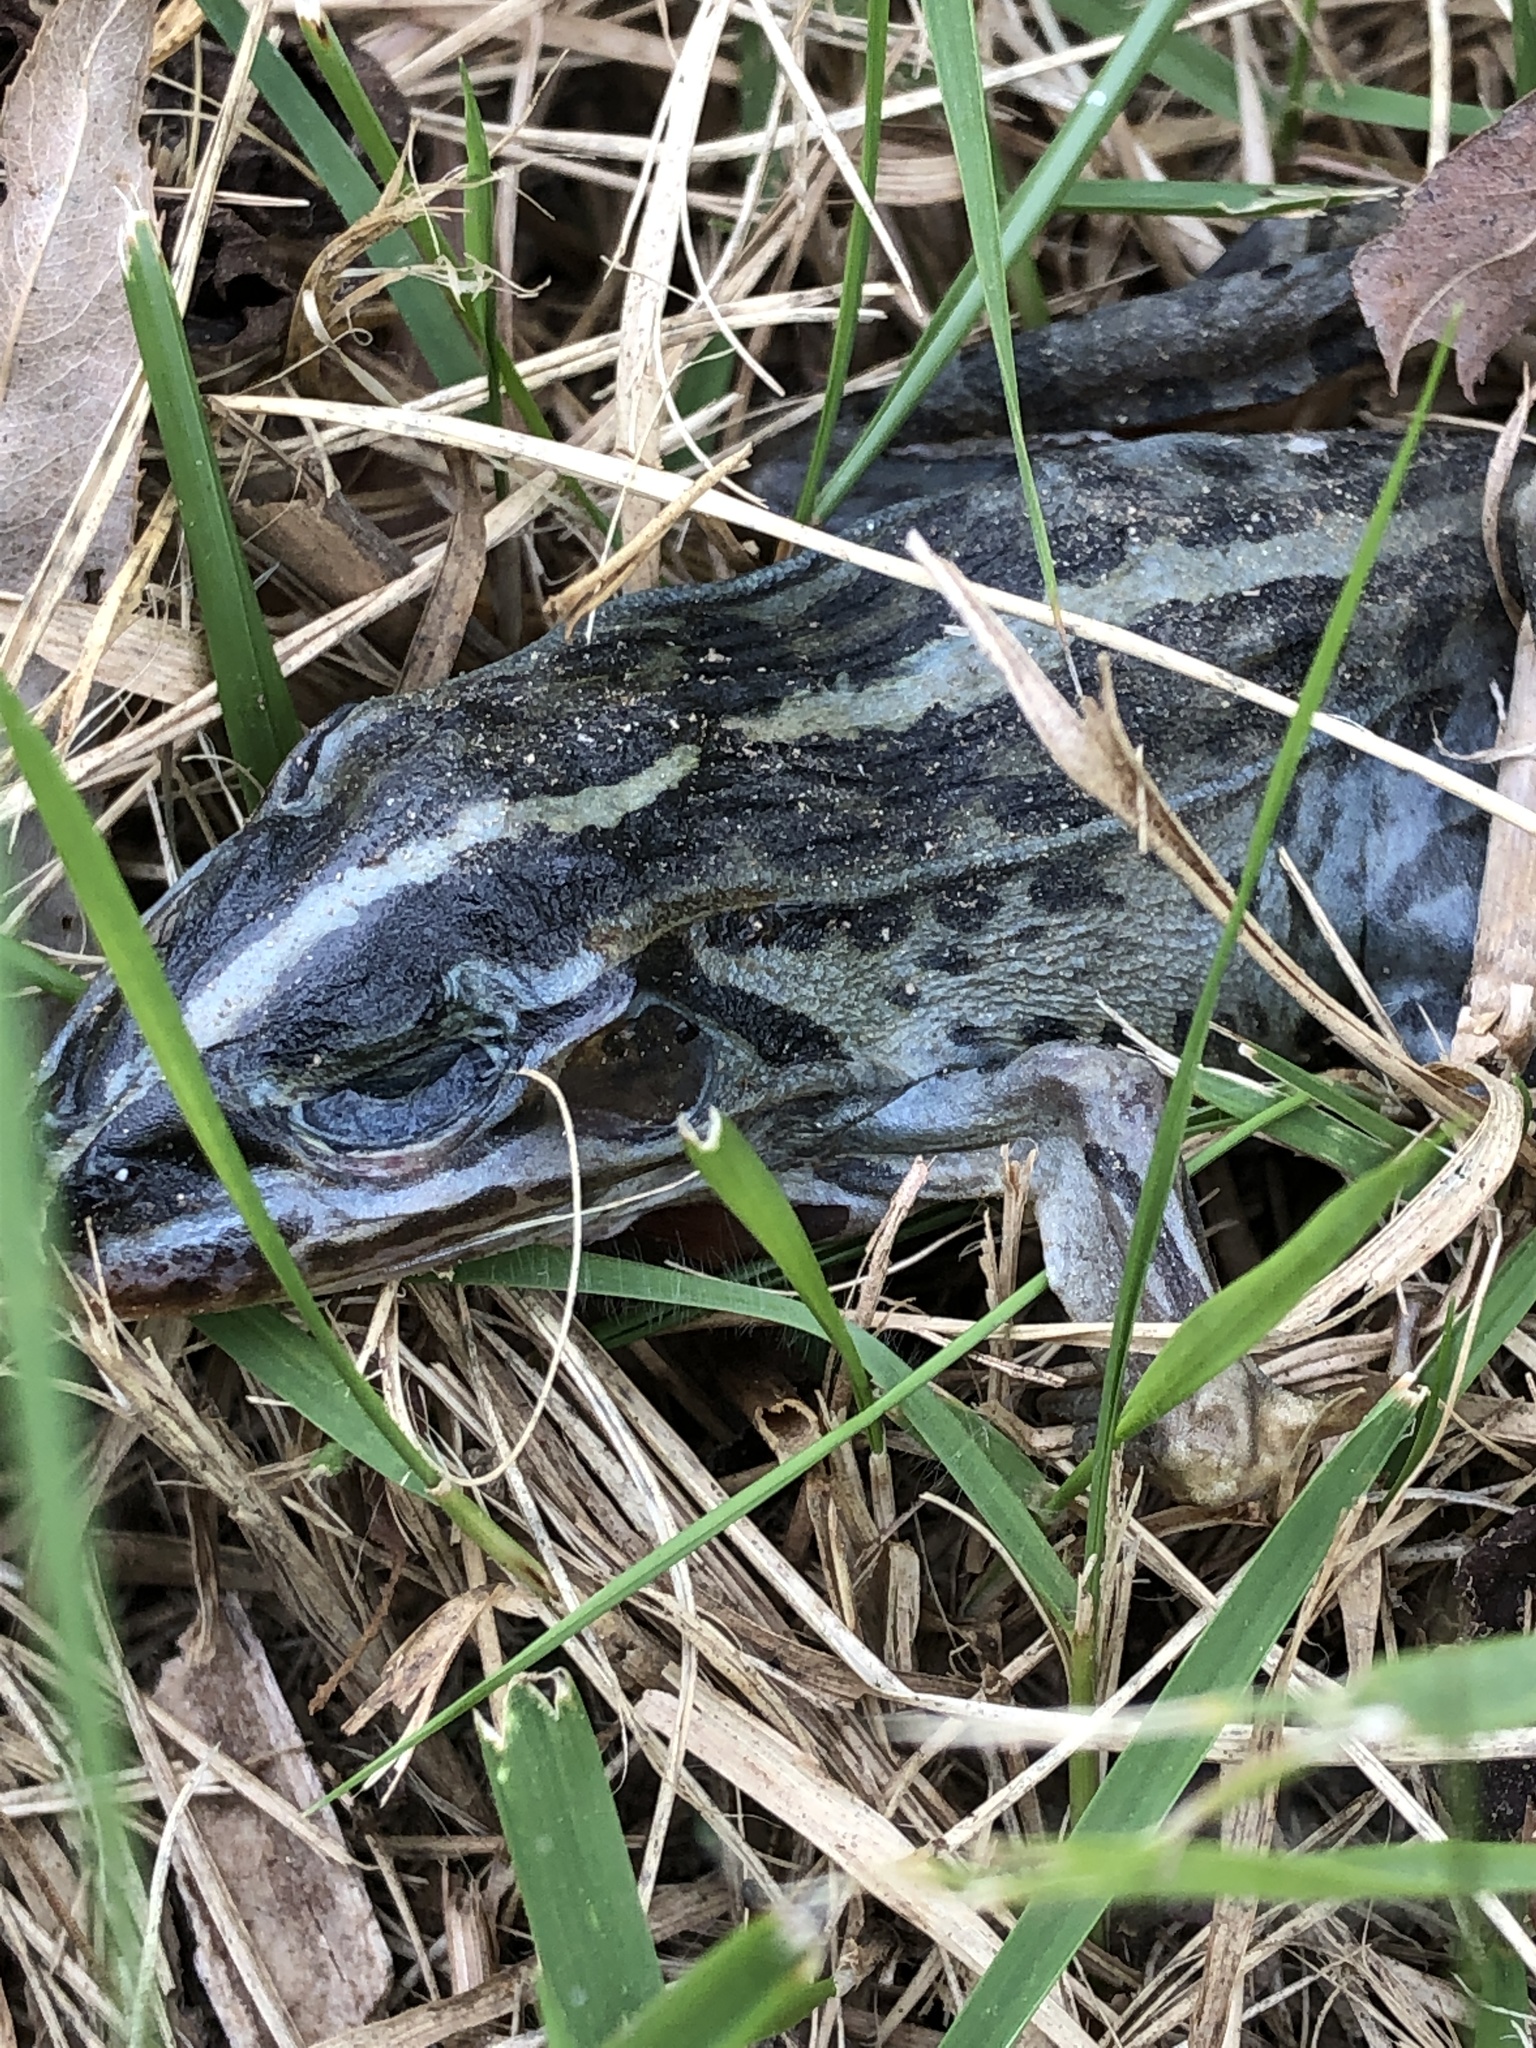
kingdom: Animalia
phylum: Chordata
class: Amphibia
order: Anura
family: Ranidae
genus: Pelophylax
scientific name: Pelophylax nigromaculatus
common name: Black-spotted pond frog
